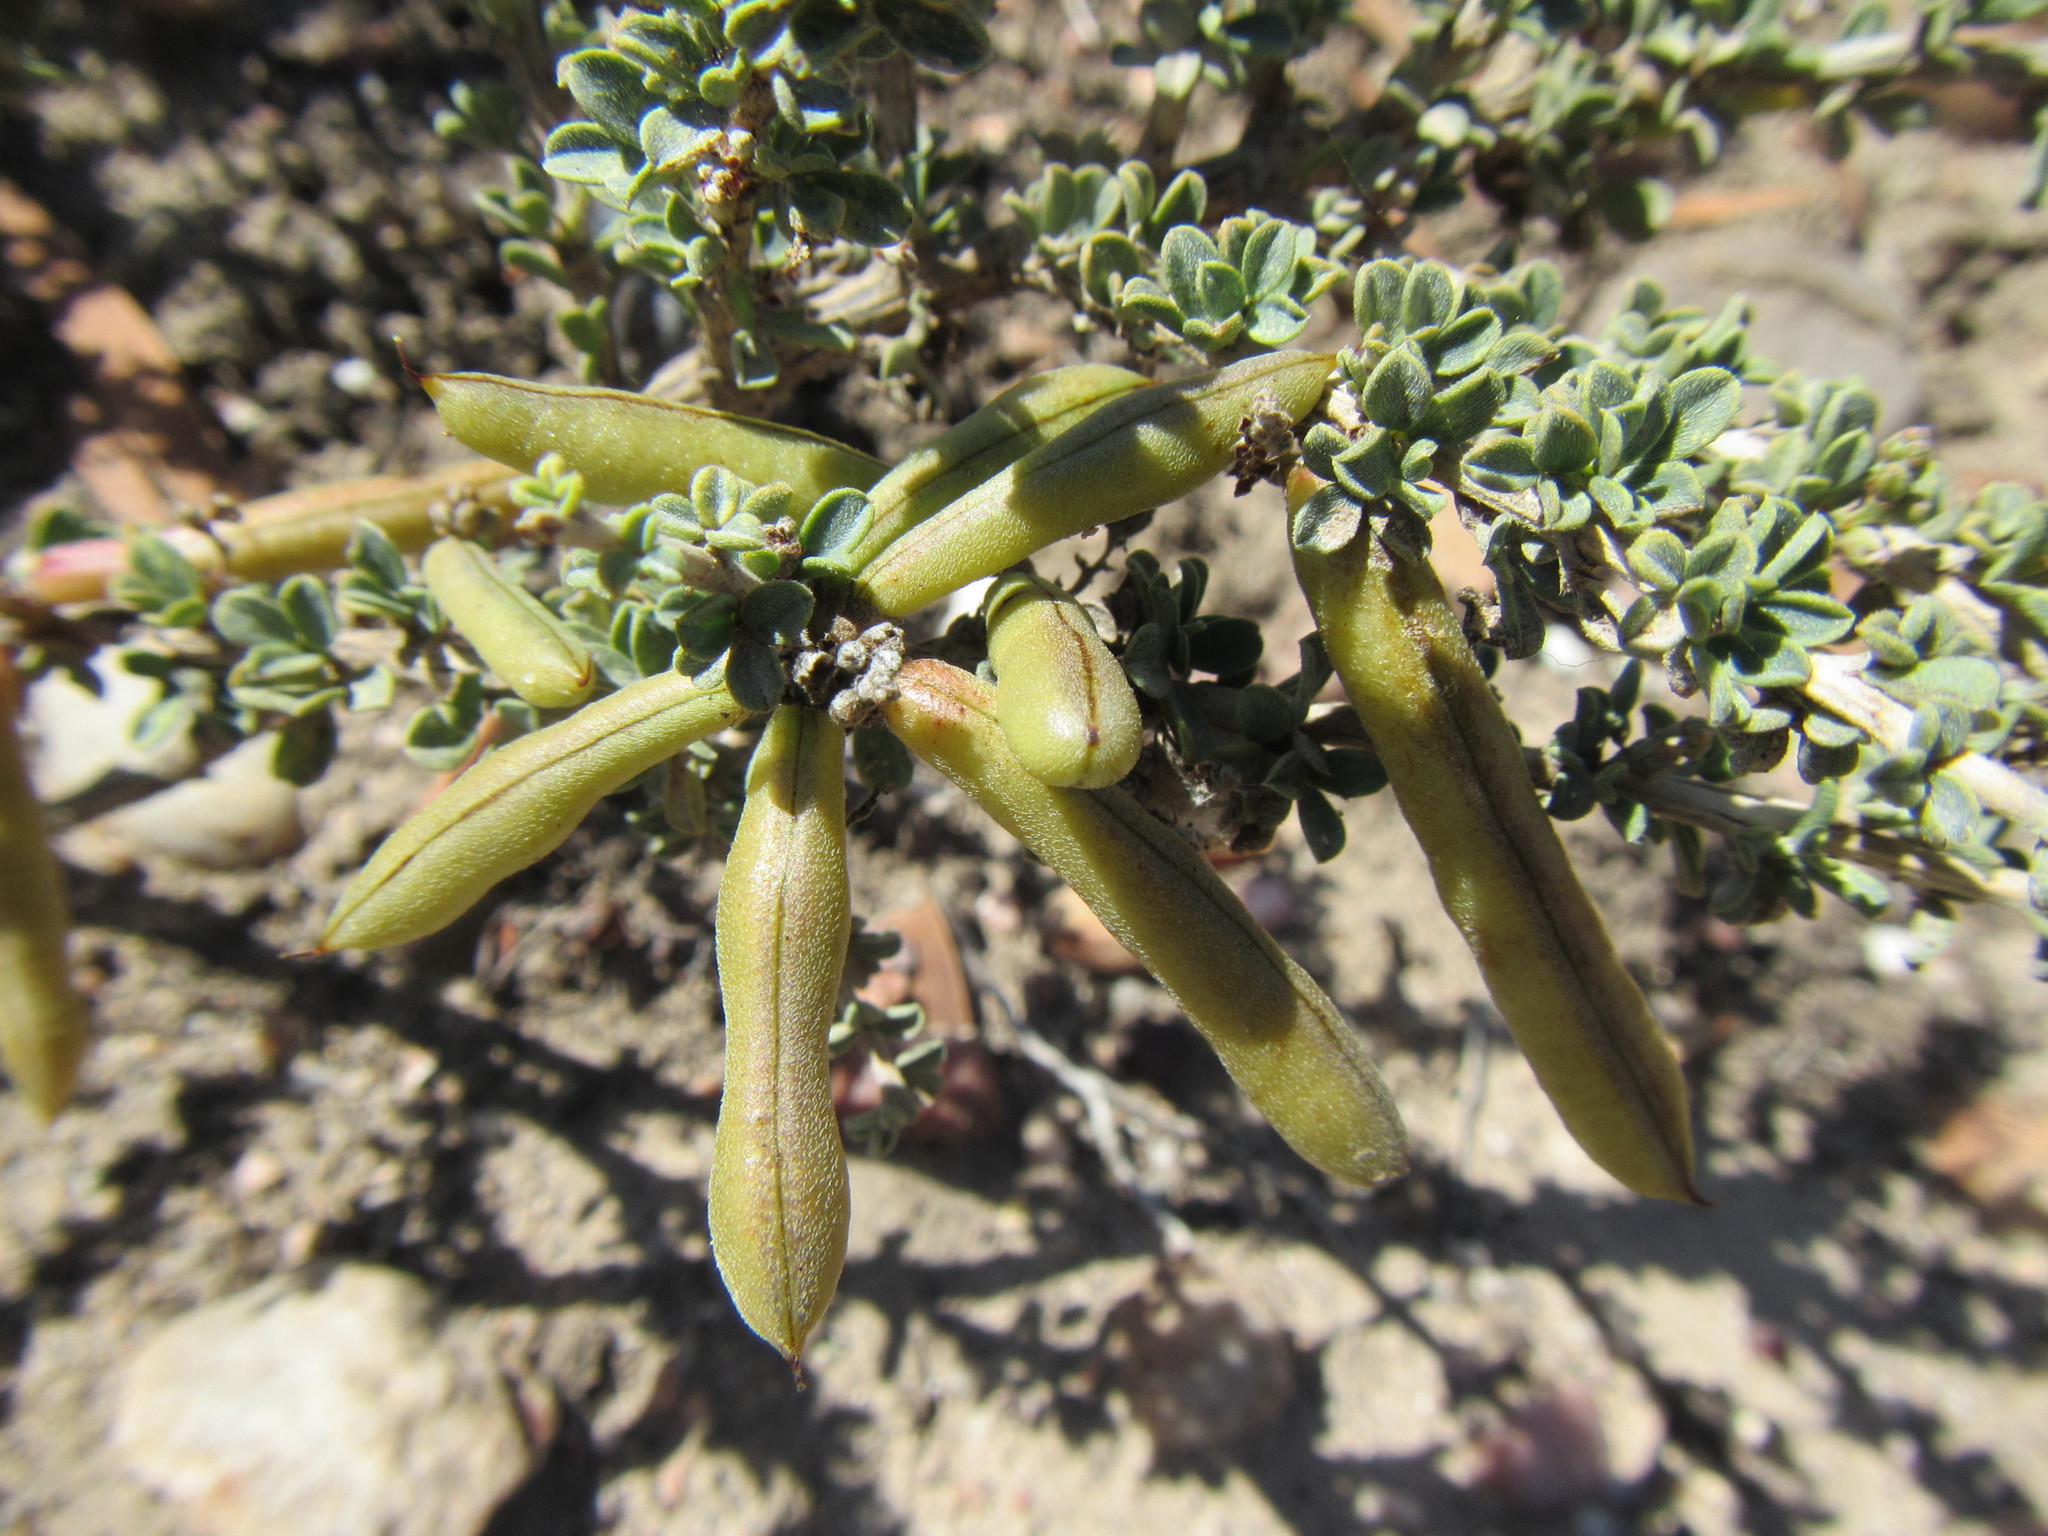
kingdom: Plantae
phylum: Tracheophyta
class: Magnoliopsida
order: Fabales
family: Fabaceae
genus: Indigofera
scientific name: Indigofera nigromontana
